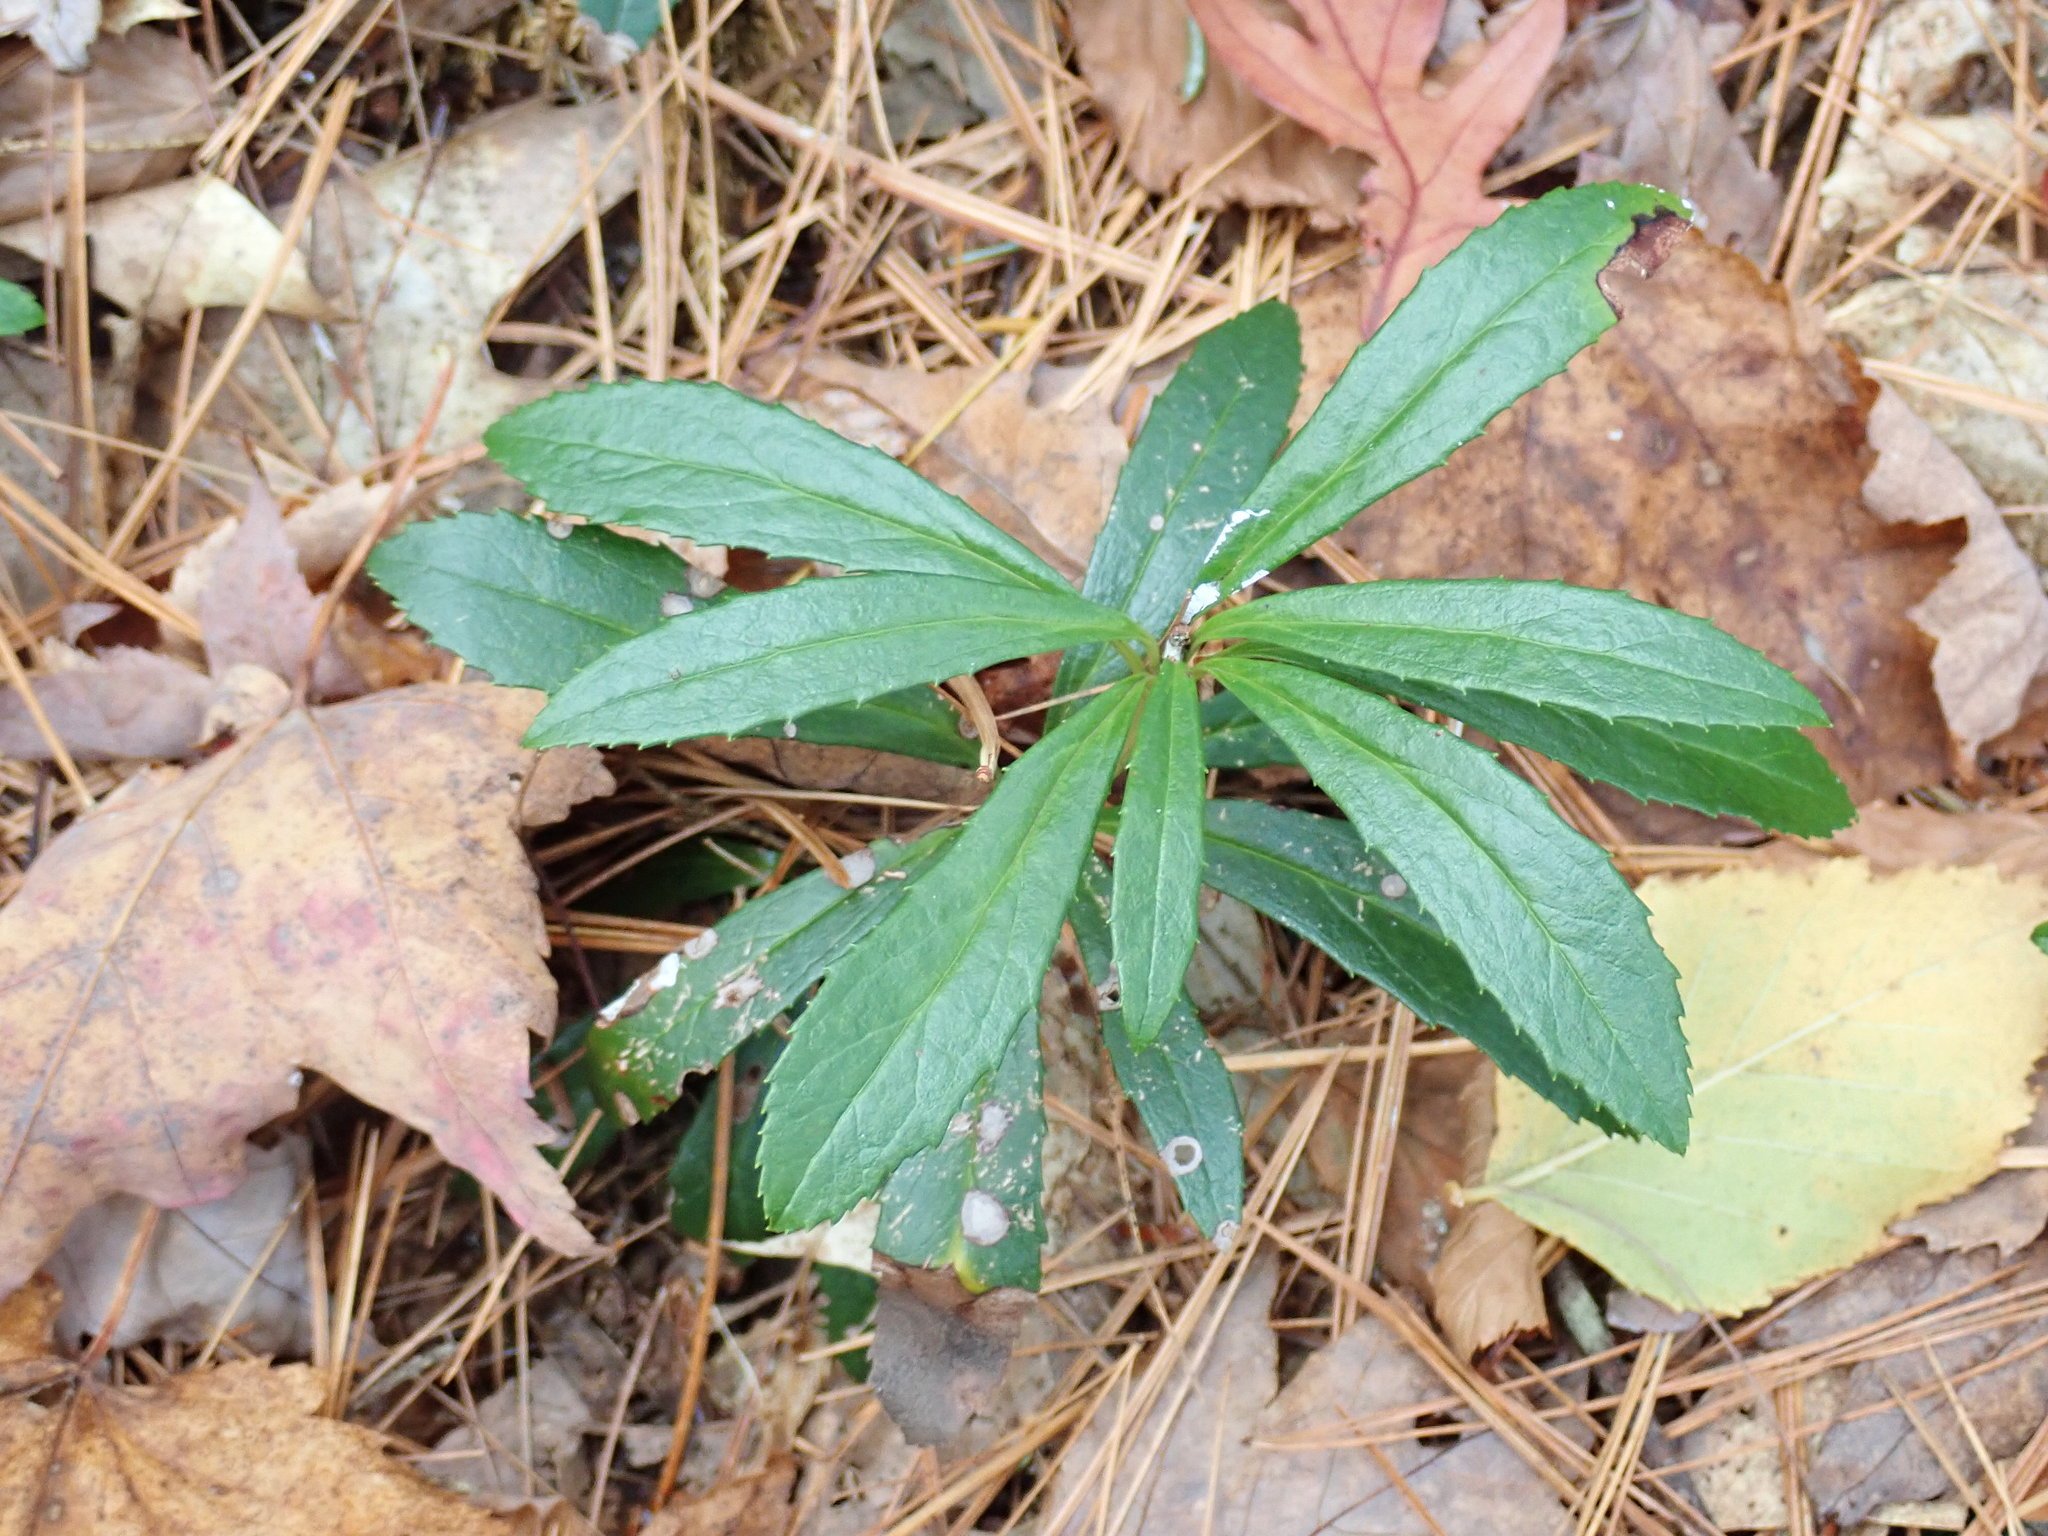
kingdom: Plantae
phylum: Tracheophyta
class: Magnoliopsida
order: Ericales
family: Ericaceae
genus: Chimaphila
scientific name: Chimaphila umbellata
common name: Pipsissewa
